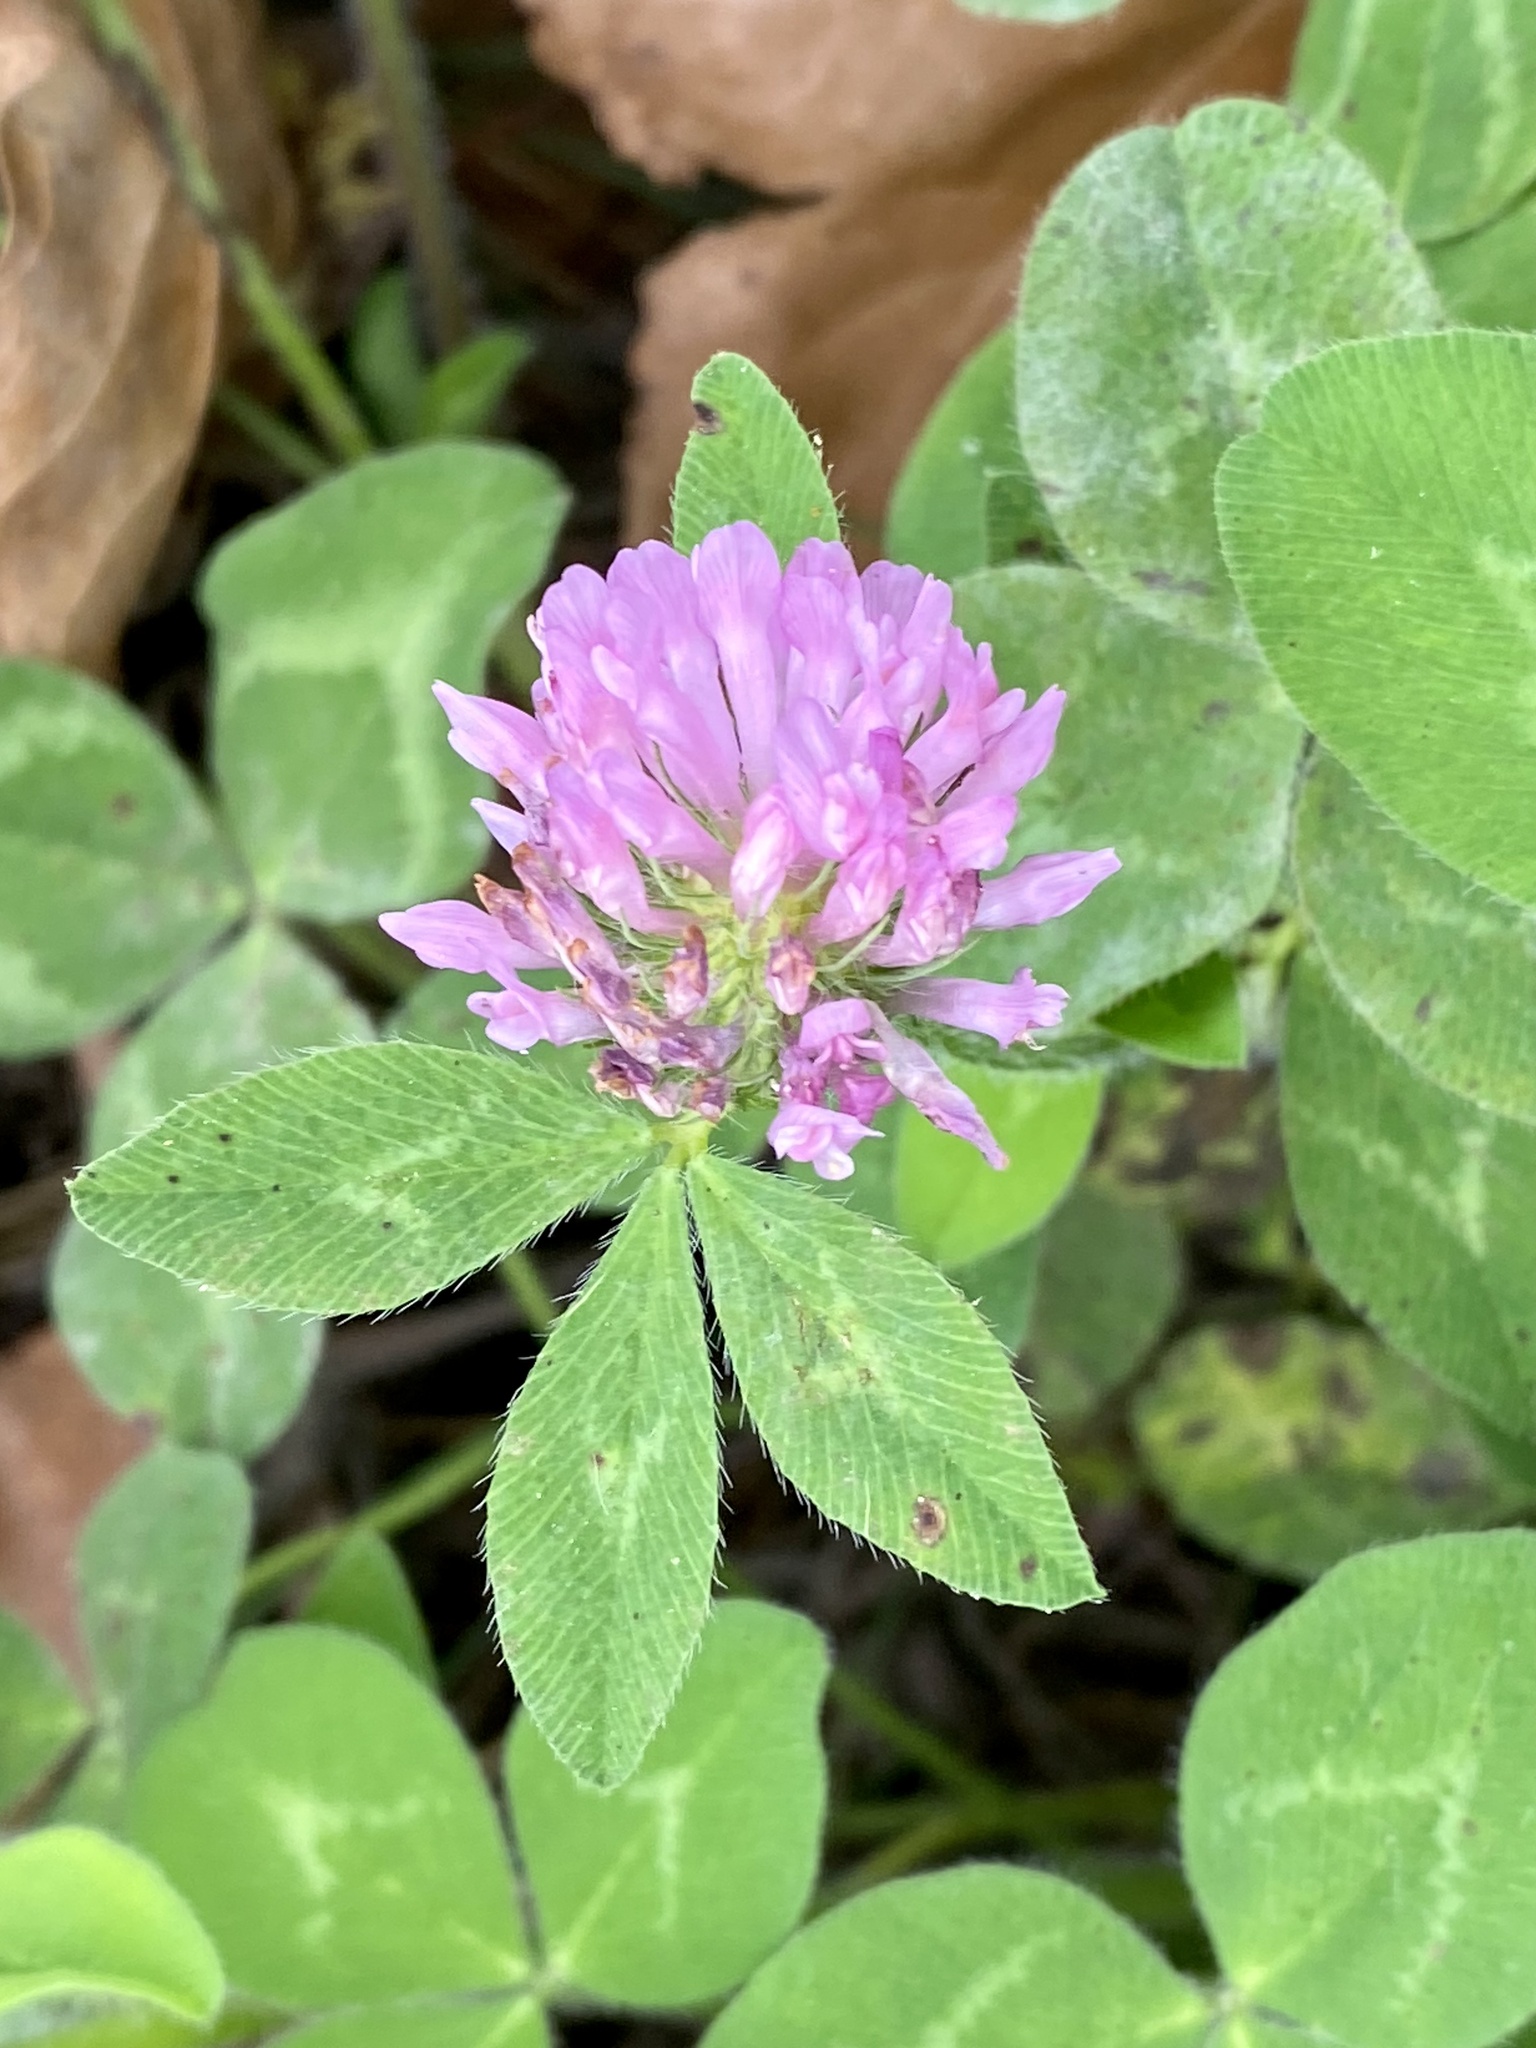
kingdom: Plantae
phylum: Tracheophyta
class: Magnoliopsida
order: Fabales
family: Fabaceae
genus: Trifolium
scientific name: Trifolium pratense
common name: Red clover
